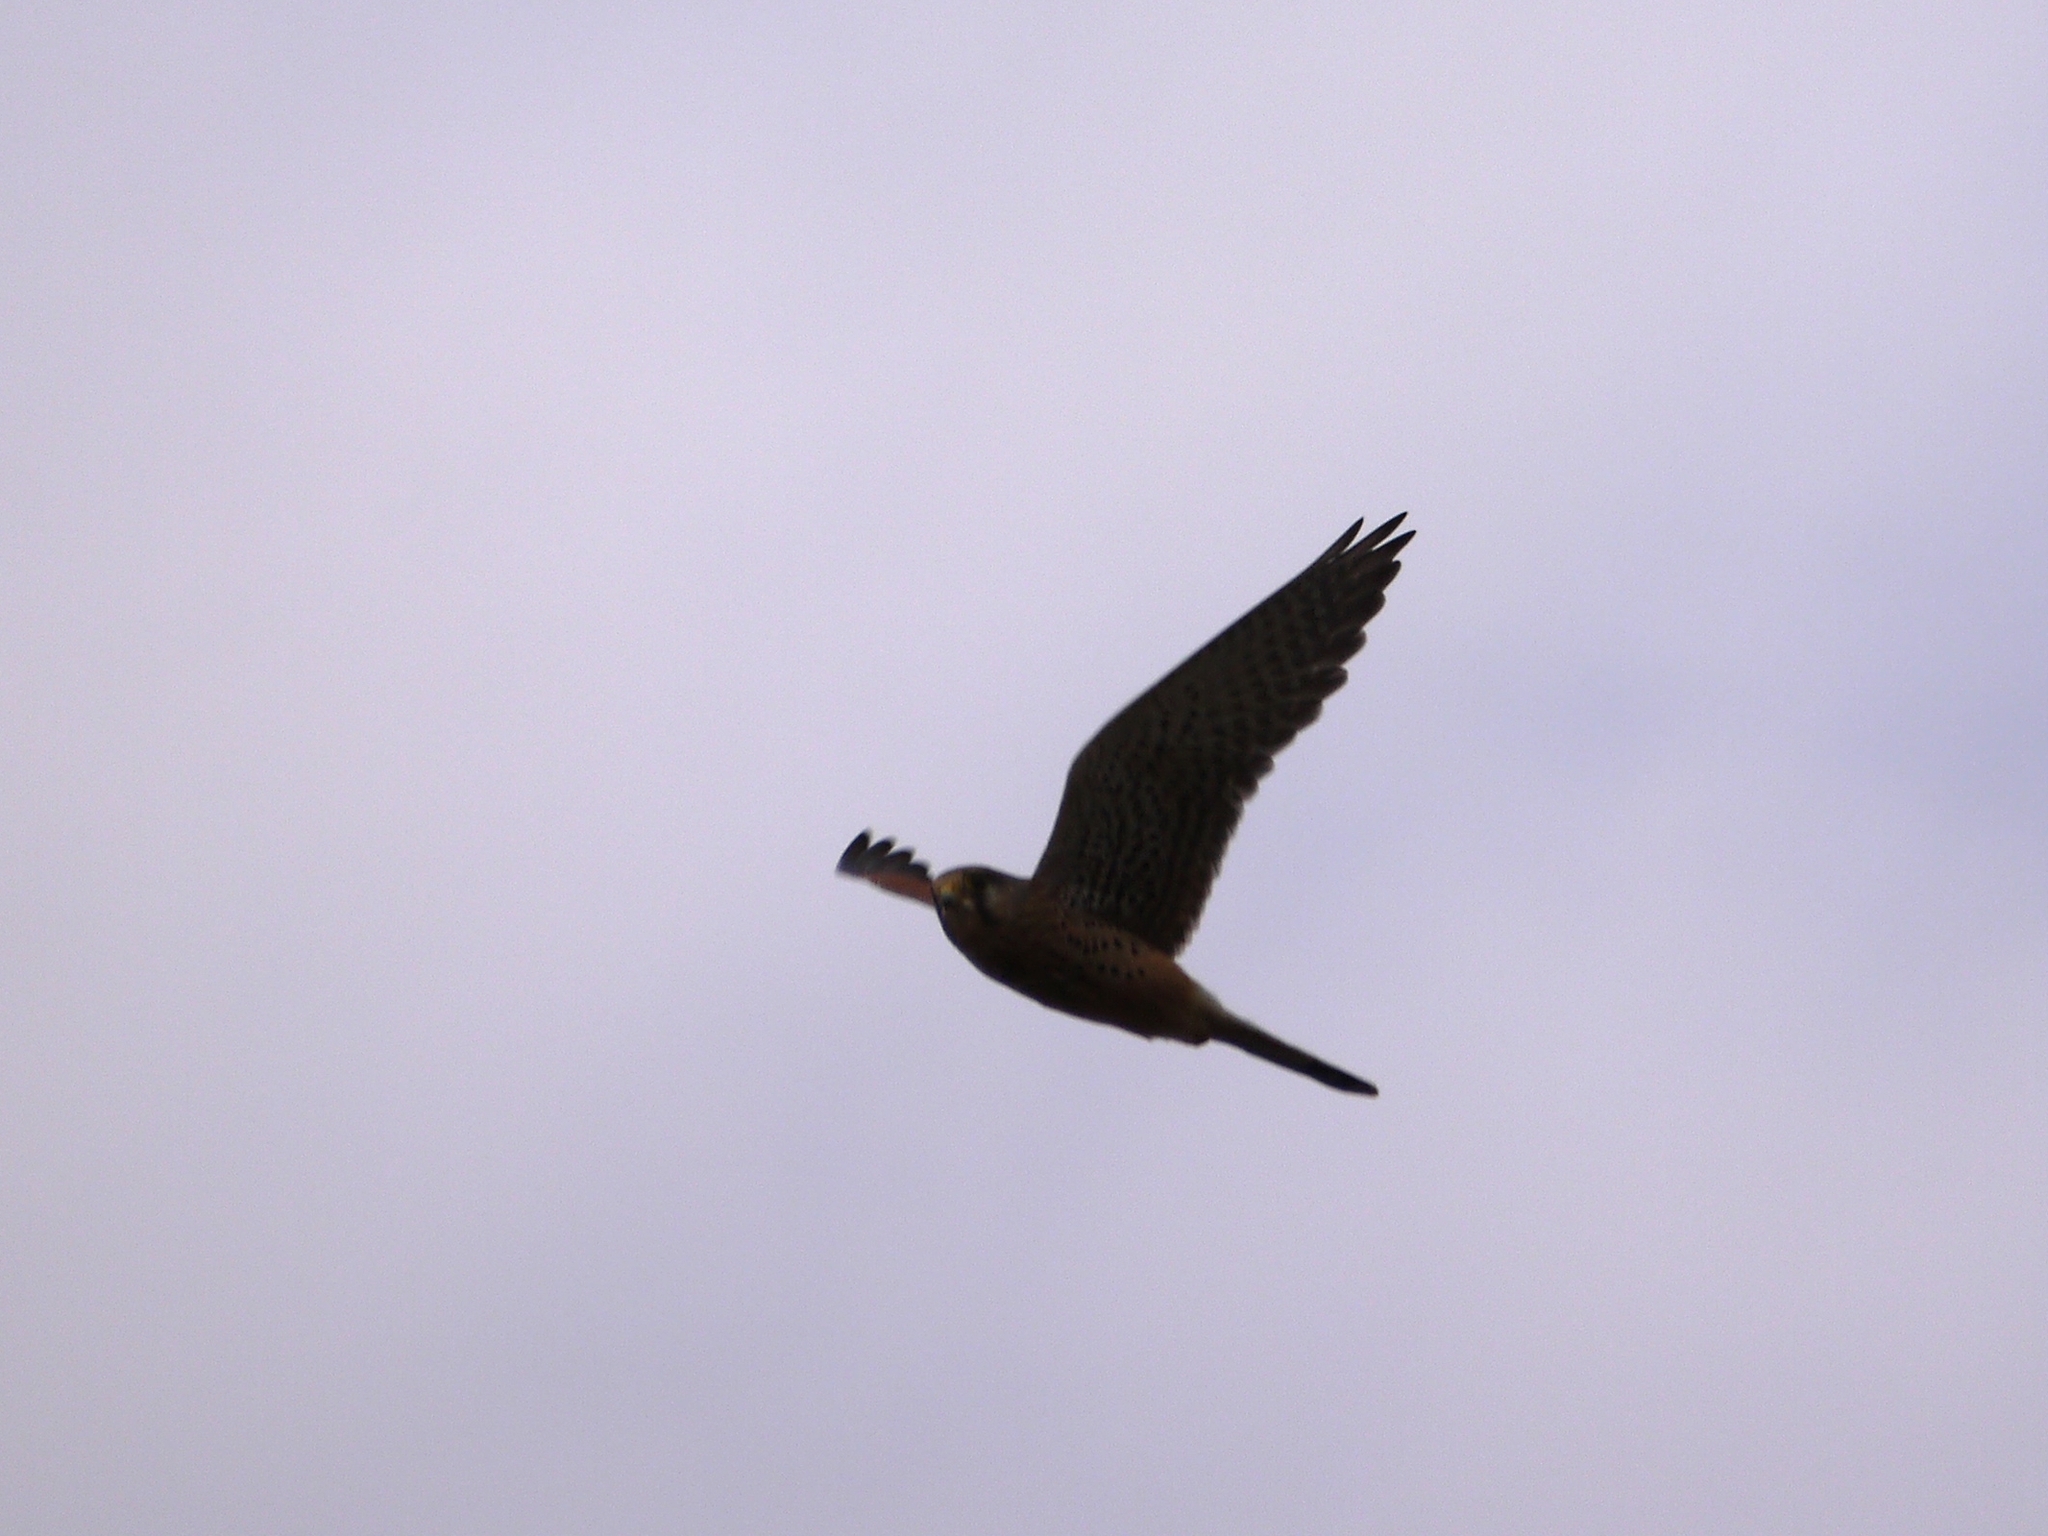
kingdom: Animalia
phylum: Chordata
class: Aves
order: Falconiformes
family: Falconidae
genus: Falco
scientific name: Falco tinnunculus
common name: Common kestrel
